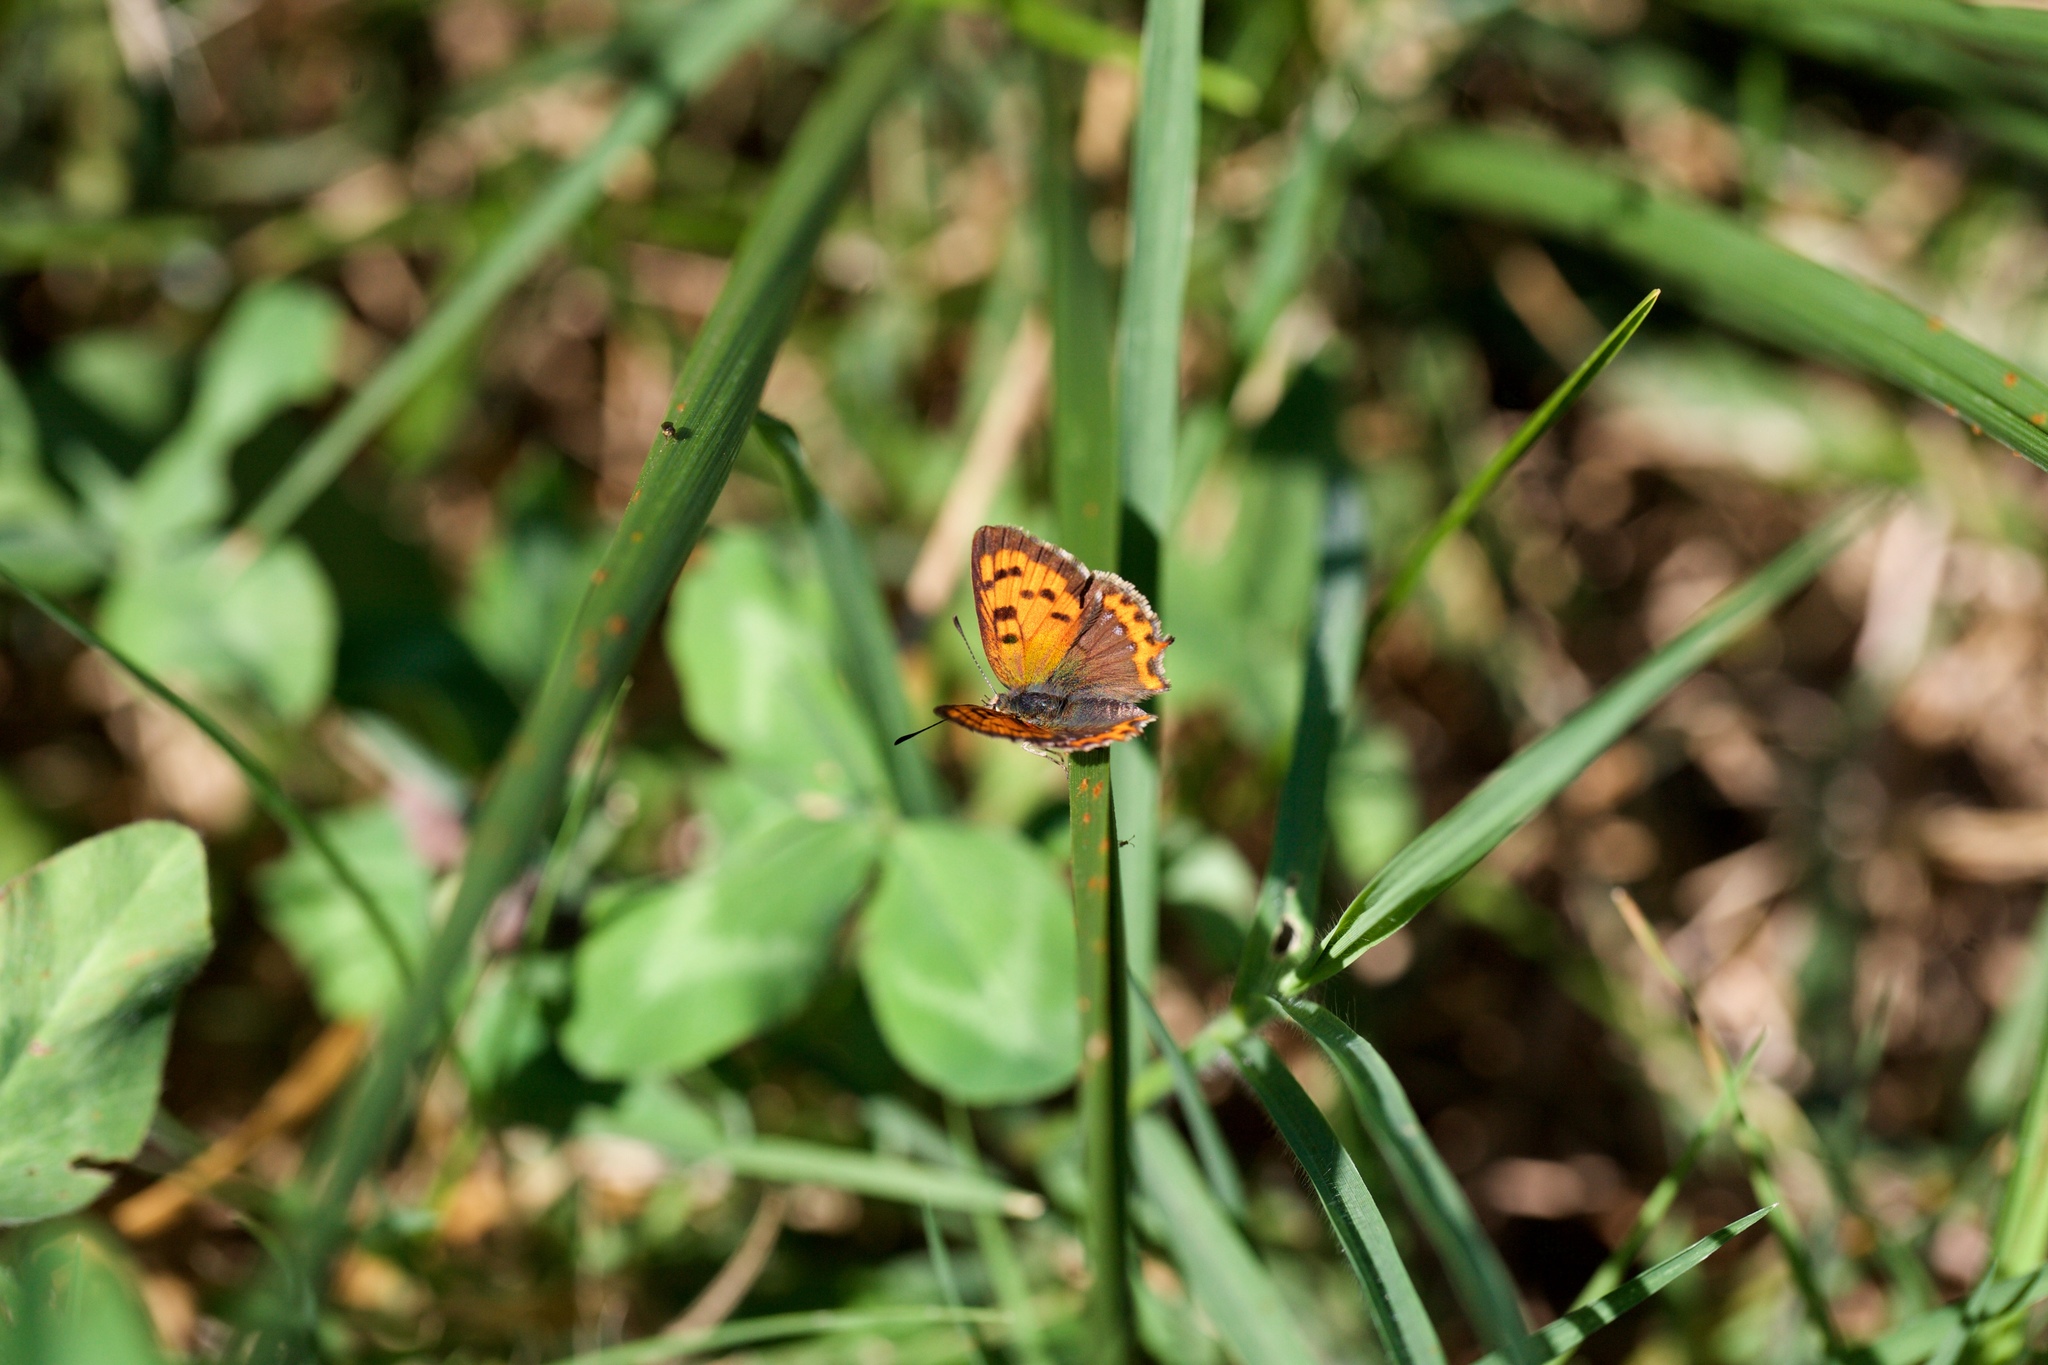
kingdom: Animalia
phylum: Arthropoda
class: Insecta
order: Lepidoptera
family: Lycaenidae
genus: Lycaena
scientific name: Lycaena phlaeas
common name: Small copper
